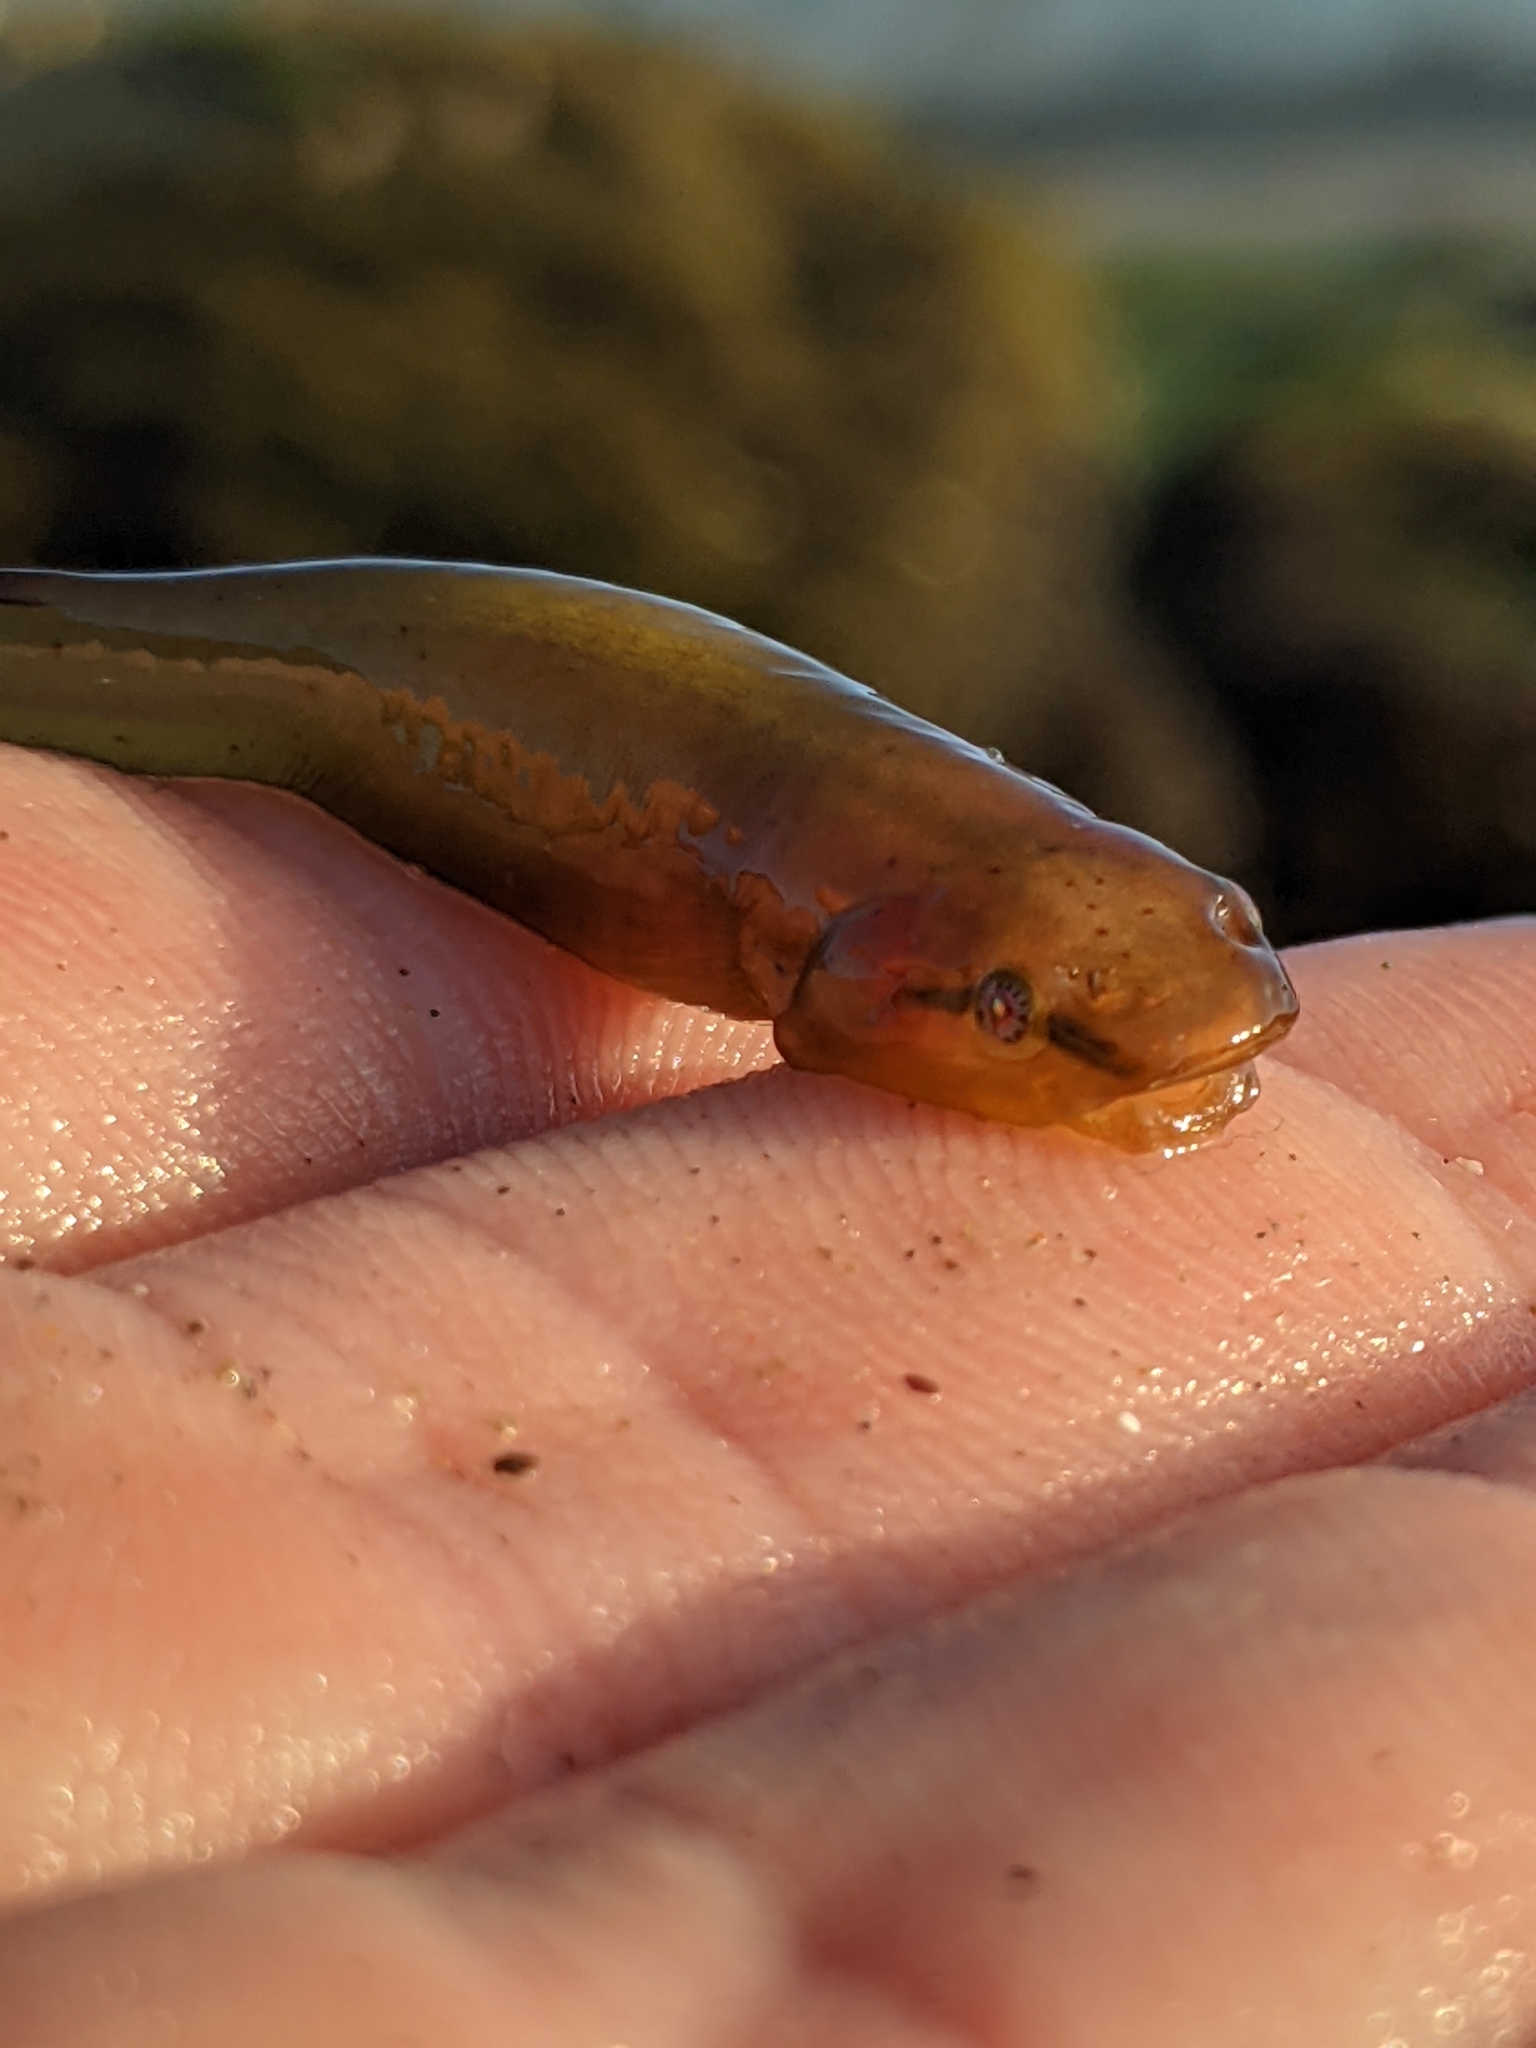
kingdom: Animalia
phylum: Chordata
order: Gobiesociformes
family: Gobiesocidae
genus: Rimicola
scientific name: Rimicola eigenmanni
